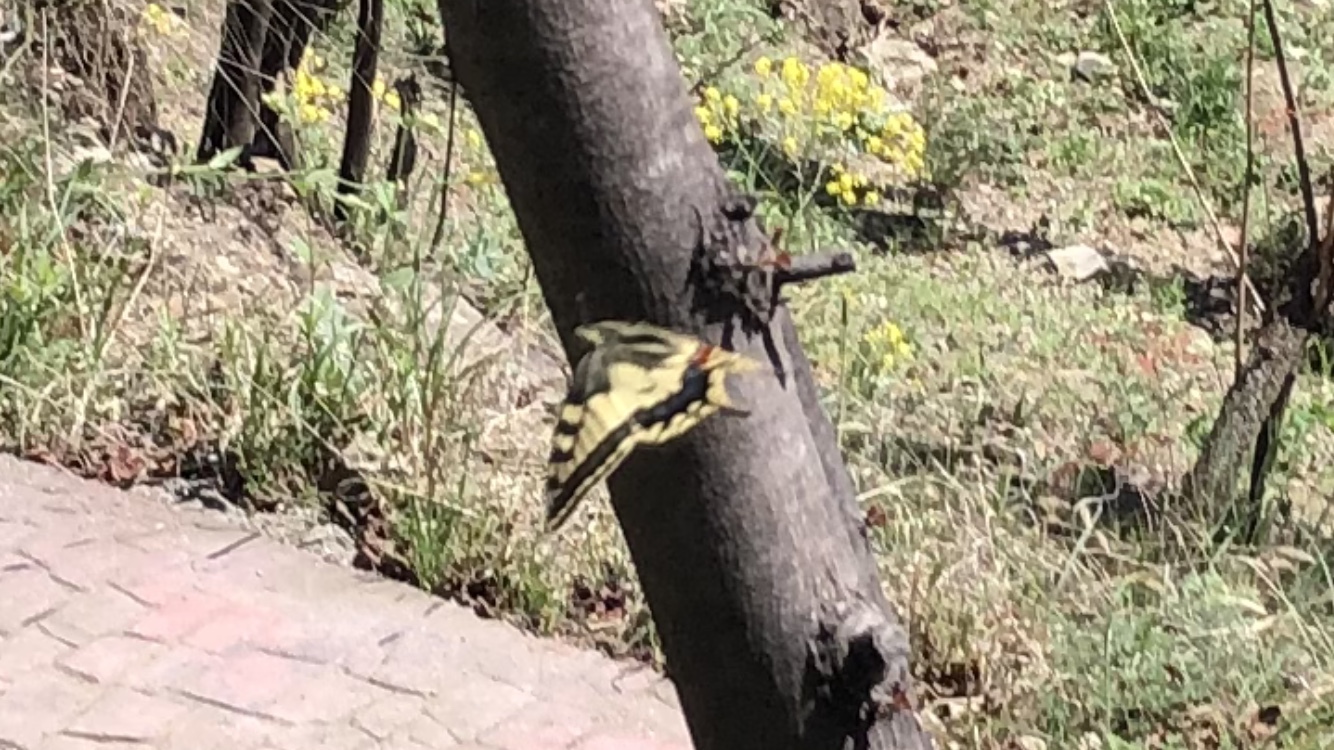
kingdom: Animalia
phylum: Arthropoda
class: Insecta
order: Lepidoptera
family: Papilionidae
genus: Papilio
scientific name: Papilio machaon
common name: Swallowtail
